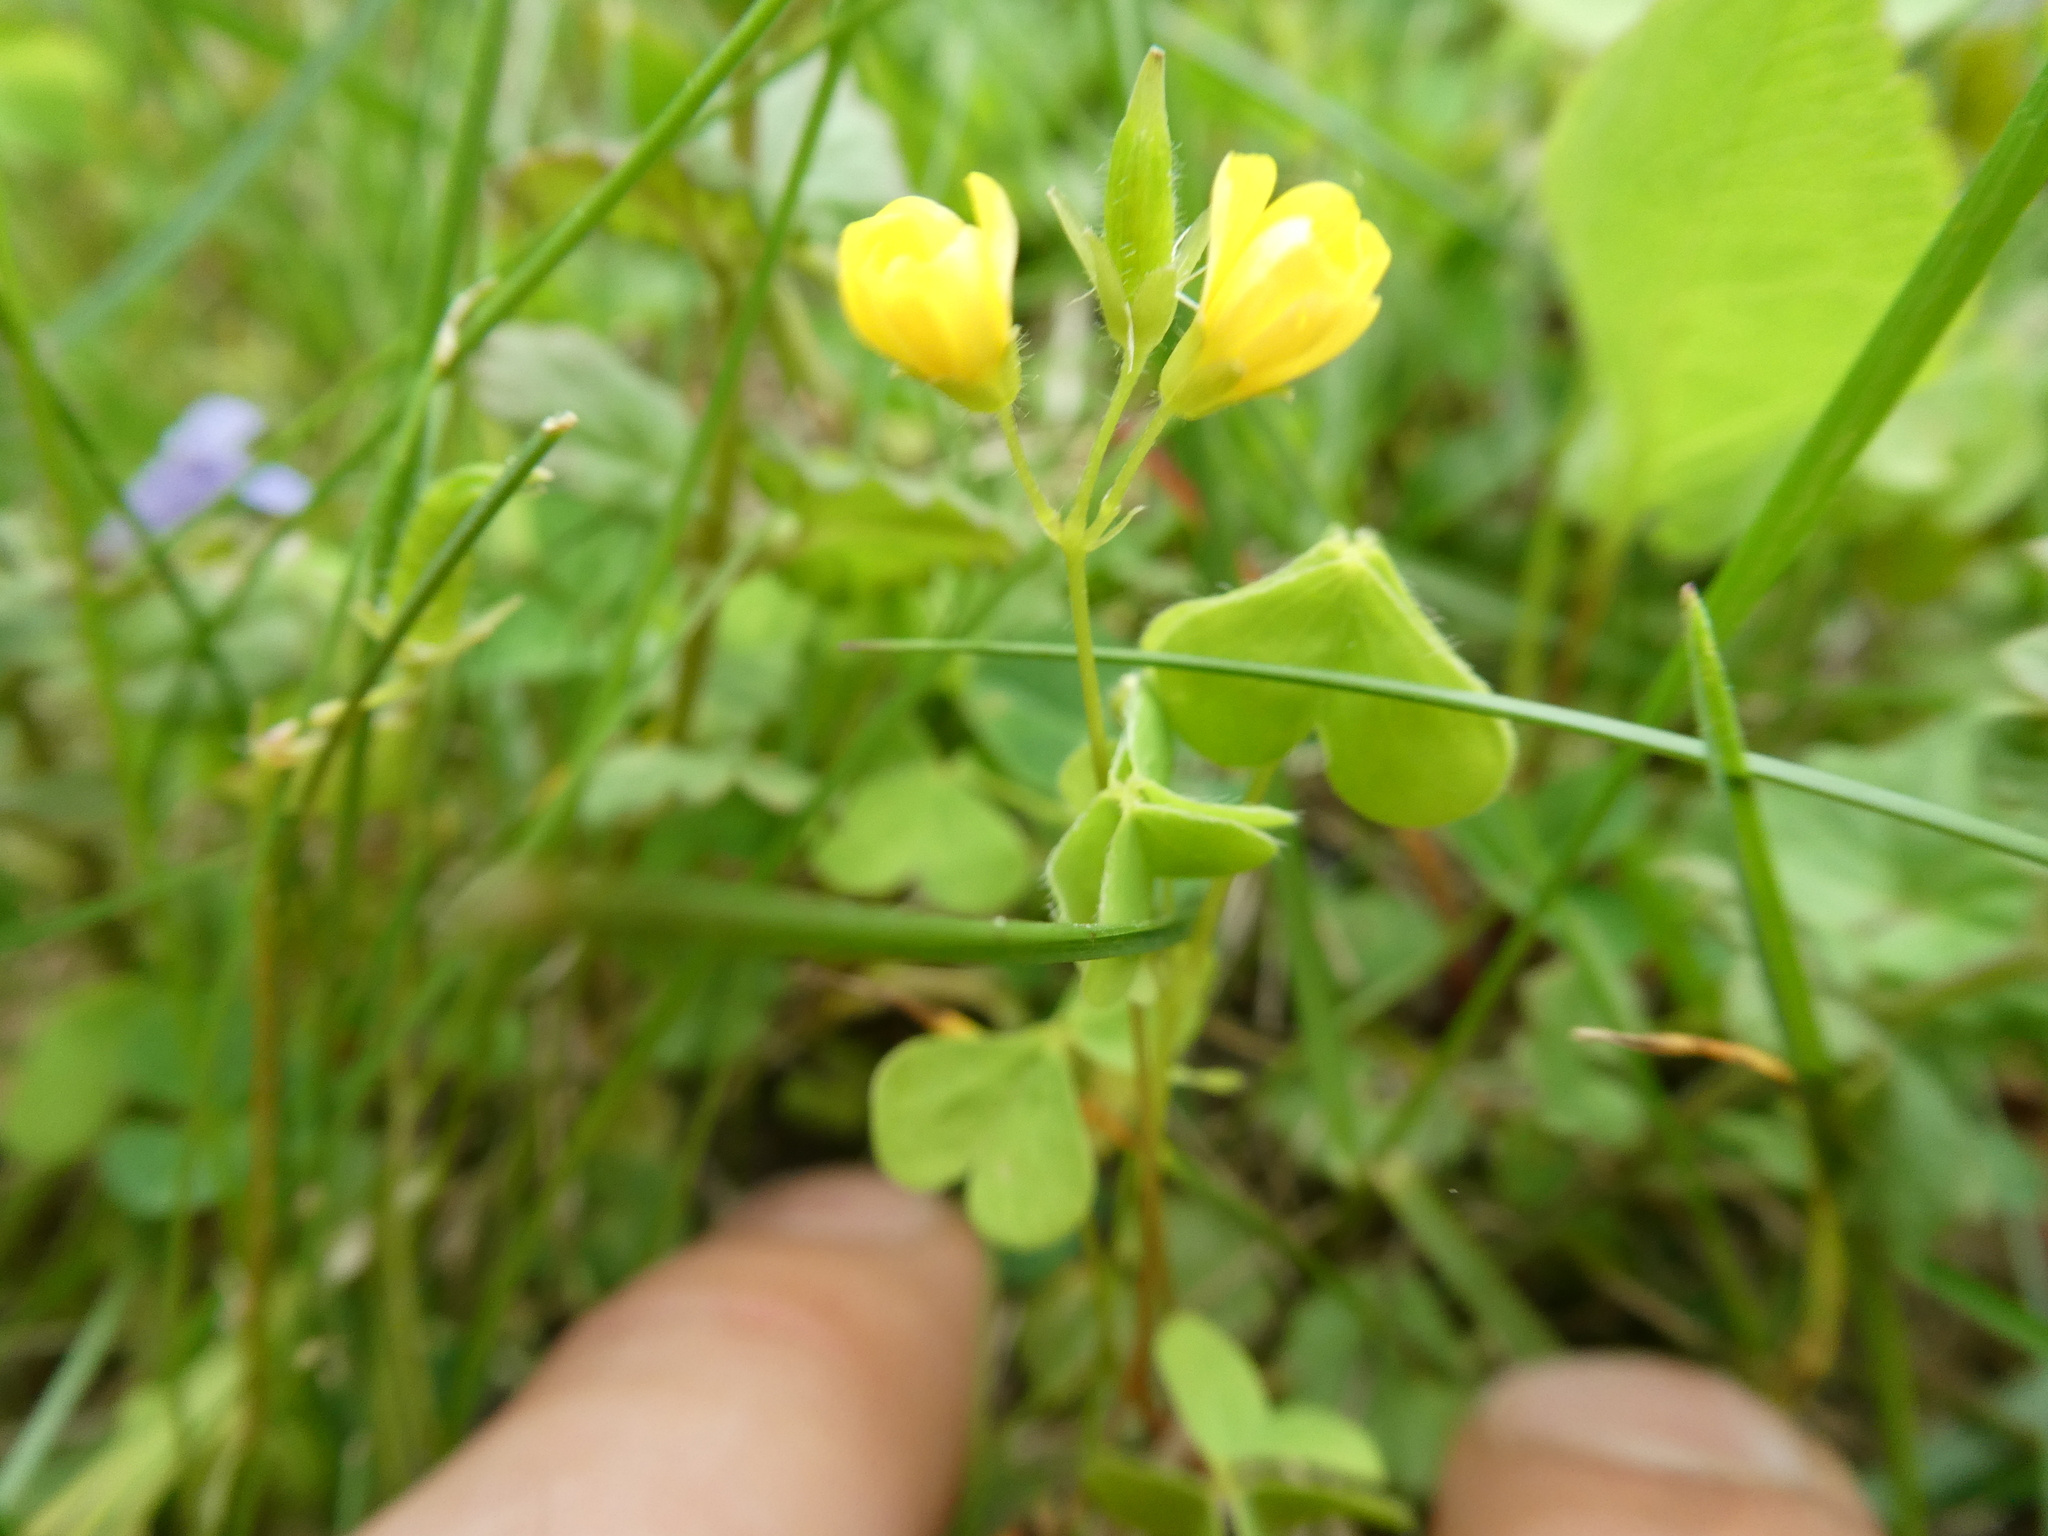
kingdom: Plantae
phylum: Tracheophyta
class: Magnoliopsida
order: Oxalidales
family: Oxalidaceae
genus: Oxalis
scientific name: Oxalis stricta
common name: Upright yellow-sorrel
